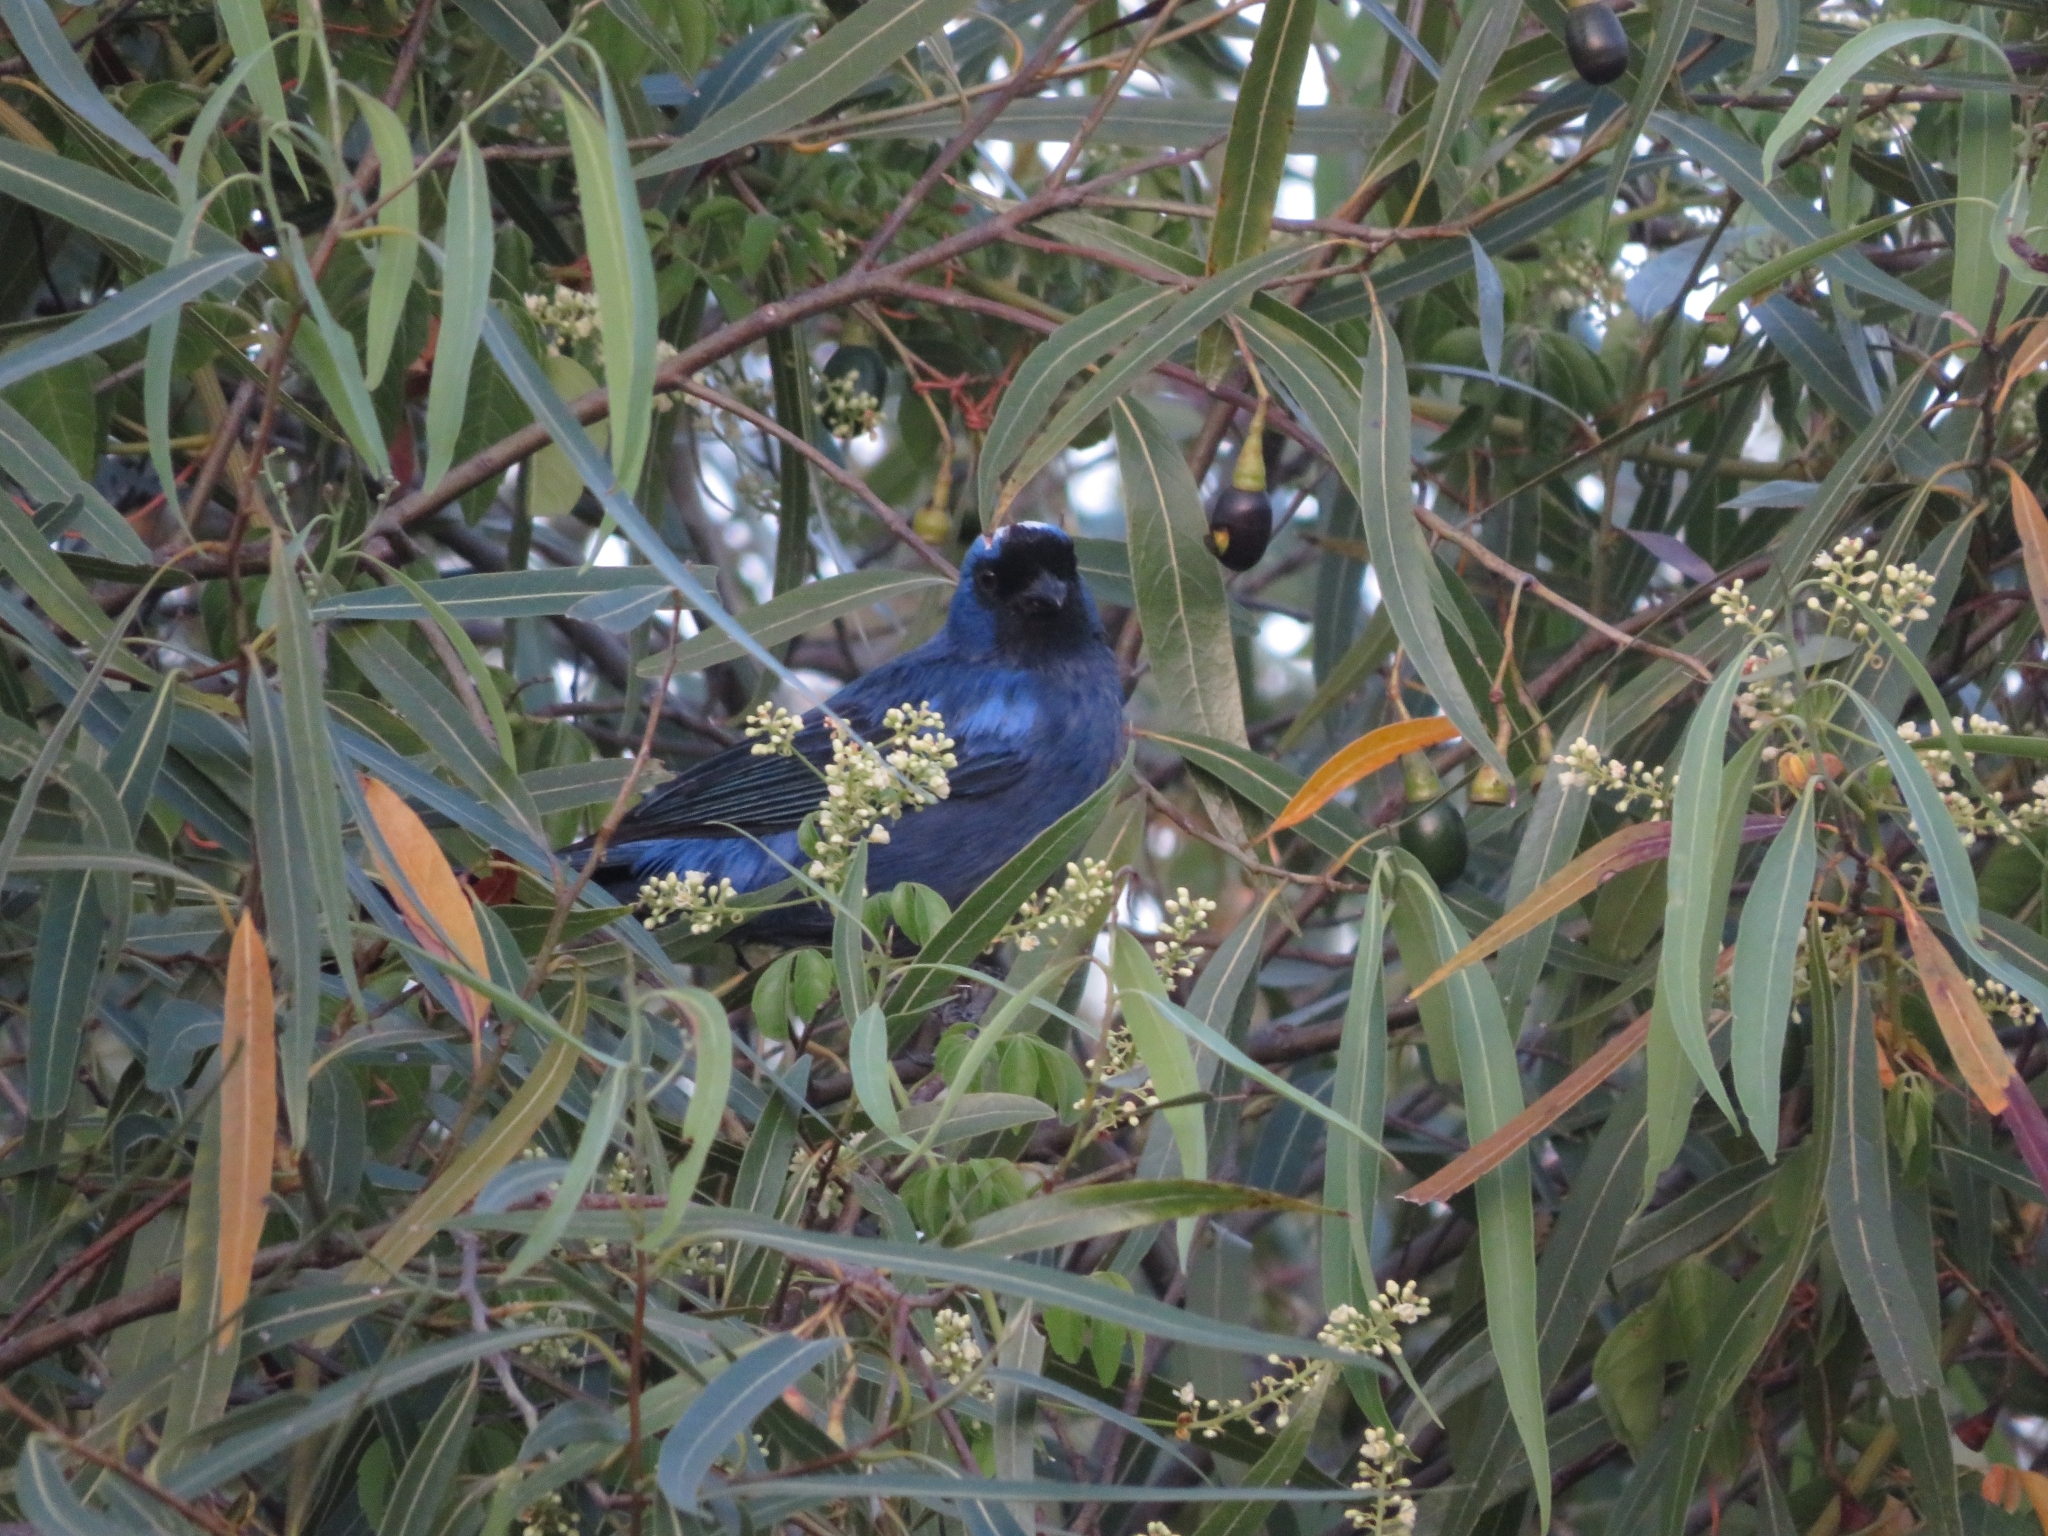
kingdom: Animalia
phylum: Chordata
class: Aves
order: Passeriformes
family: Thraupidae
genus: Stephanophorus
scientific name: Stephanophorus diadematus
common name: Diademed tanager
